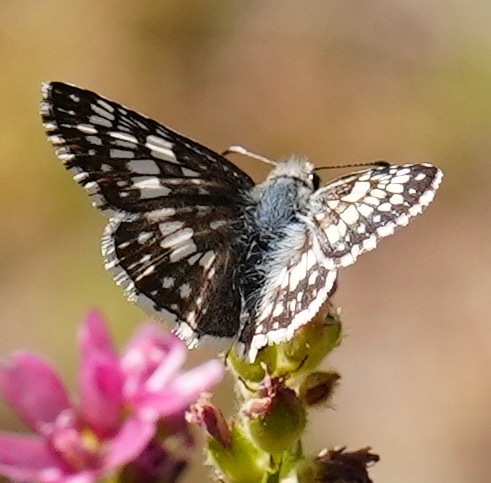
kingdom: Animalia
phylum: Arthropoda
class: Insecta
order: Lepidoptera
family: Hesperiidae
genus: Burnsius
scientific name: Burnsius communis
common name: Common checkered-skipper
